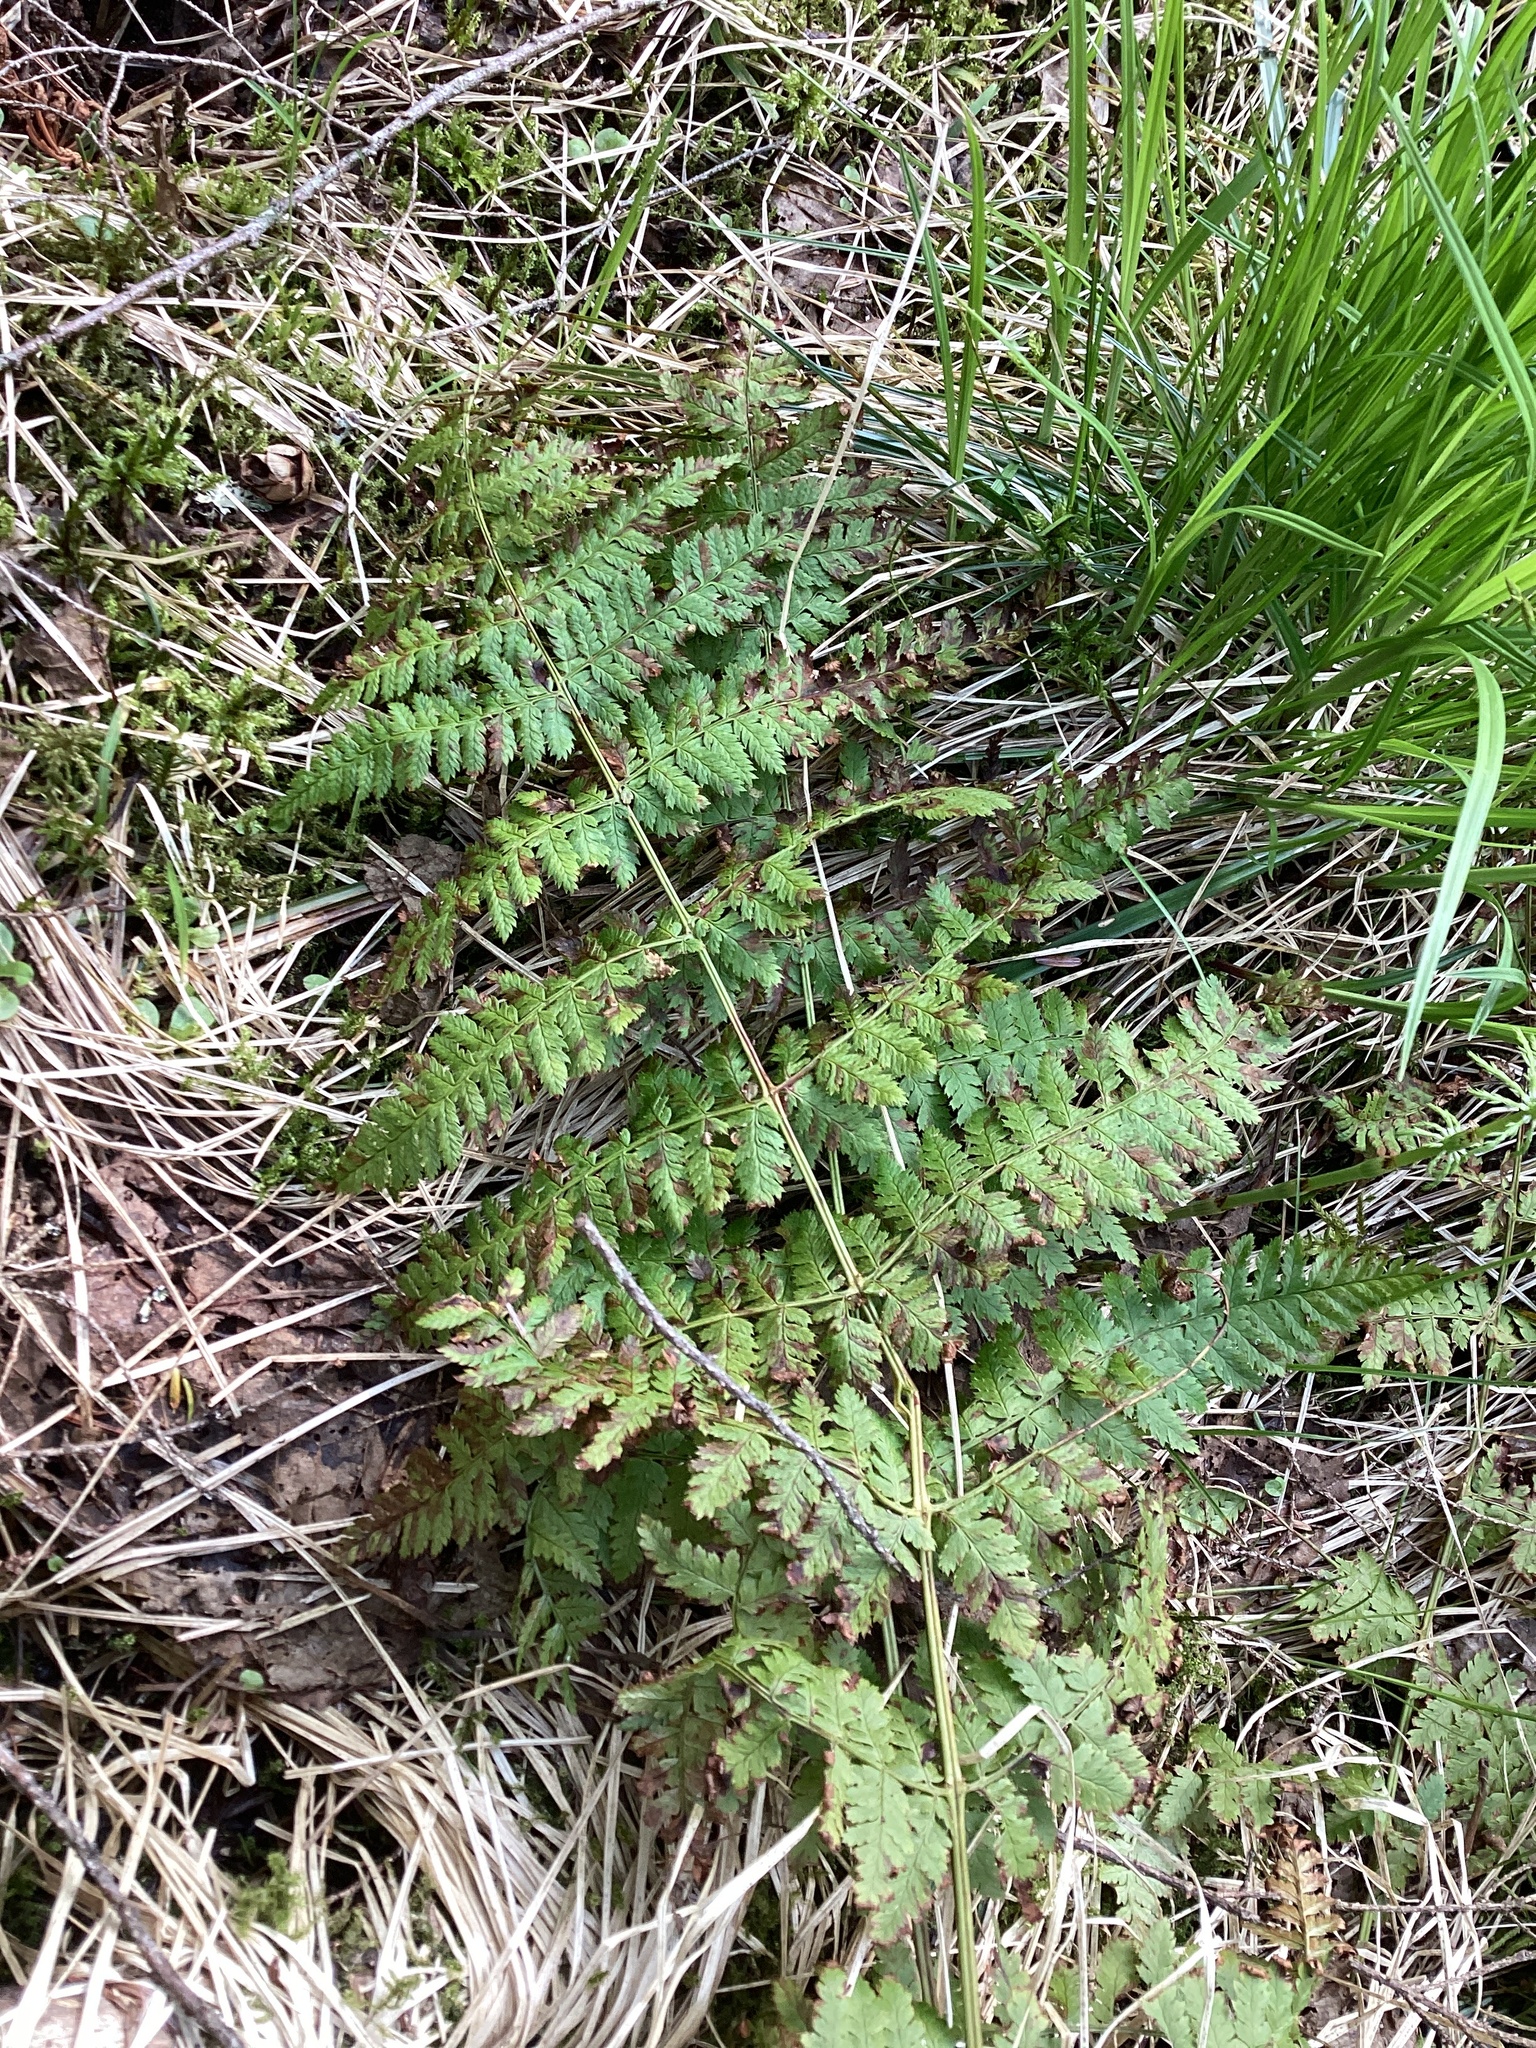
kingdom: Plantae
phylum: Tracheophyta
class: Polypodiopsida
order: Polypodiales
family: Dryopteridaceae
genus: Dryopteris
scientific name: Dryopteris intermedia
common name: Evergreen wood fern
